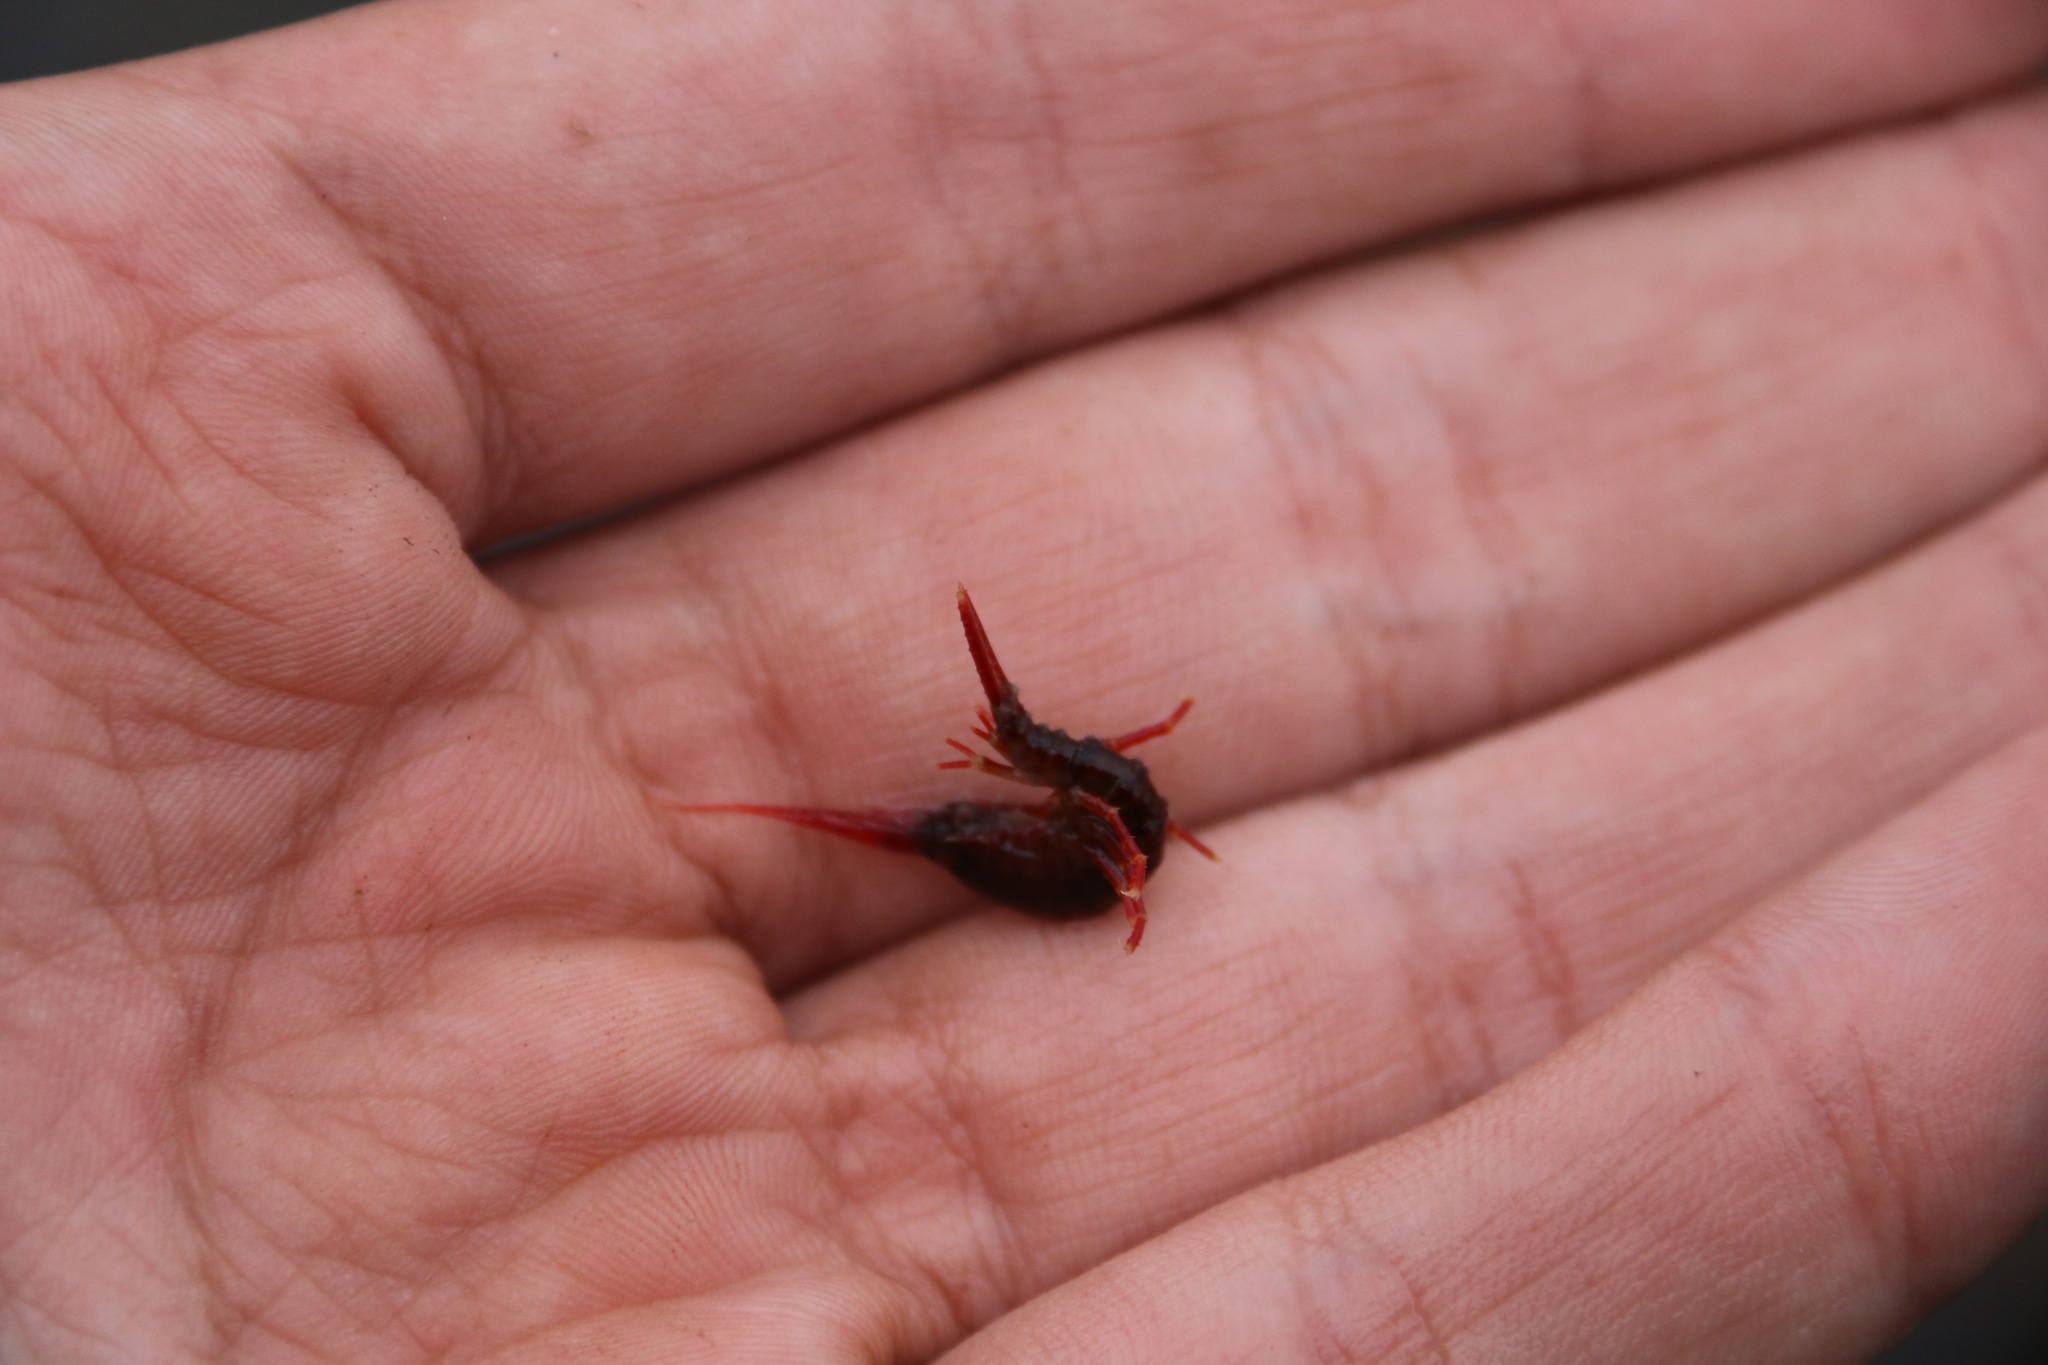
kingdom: Animalia
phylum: Arthropoda
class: Malacostraca
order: Amphipoda
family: Eulimnogammaridae
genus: Eulimnogammarus
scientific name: Eulimnogammarus cruentus
